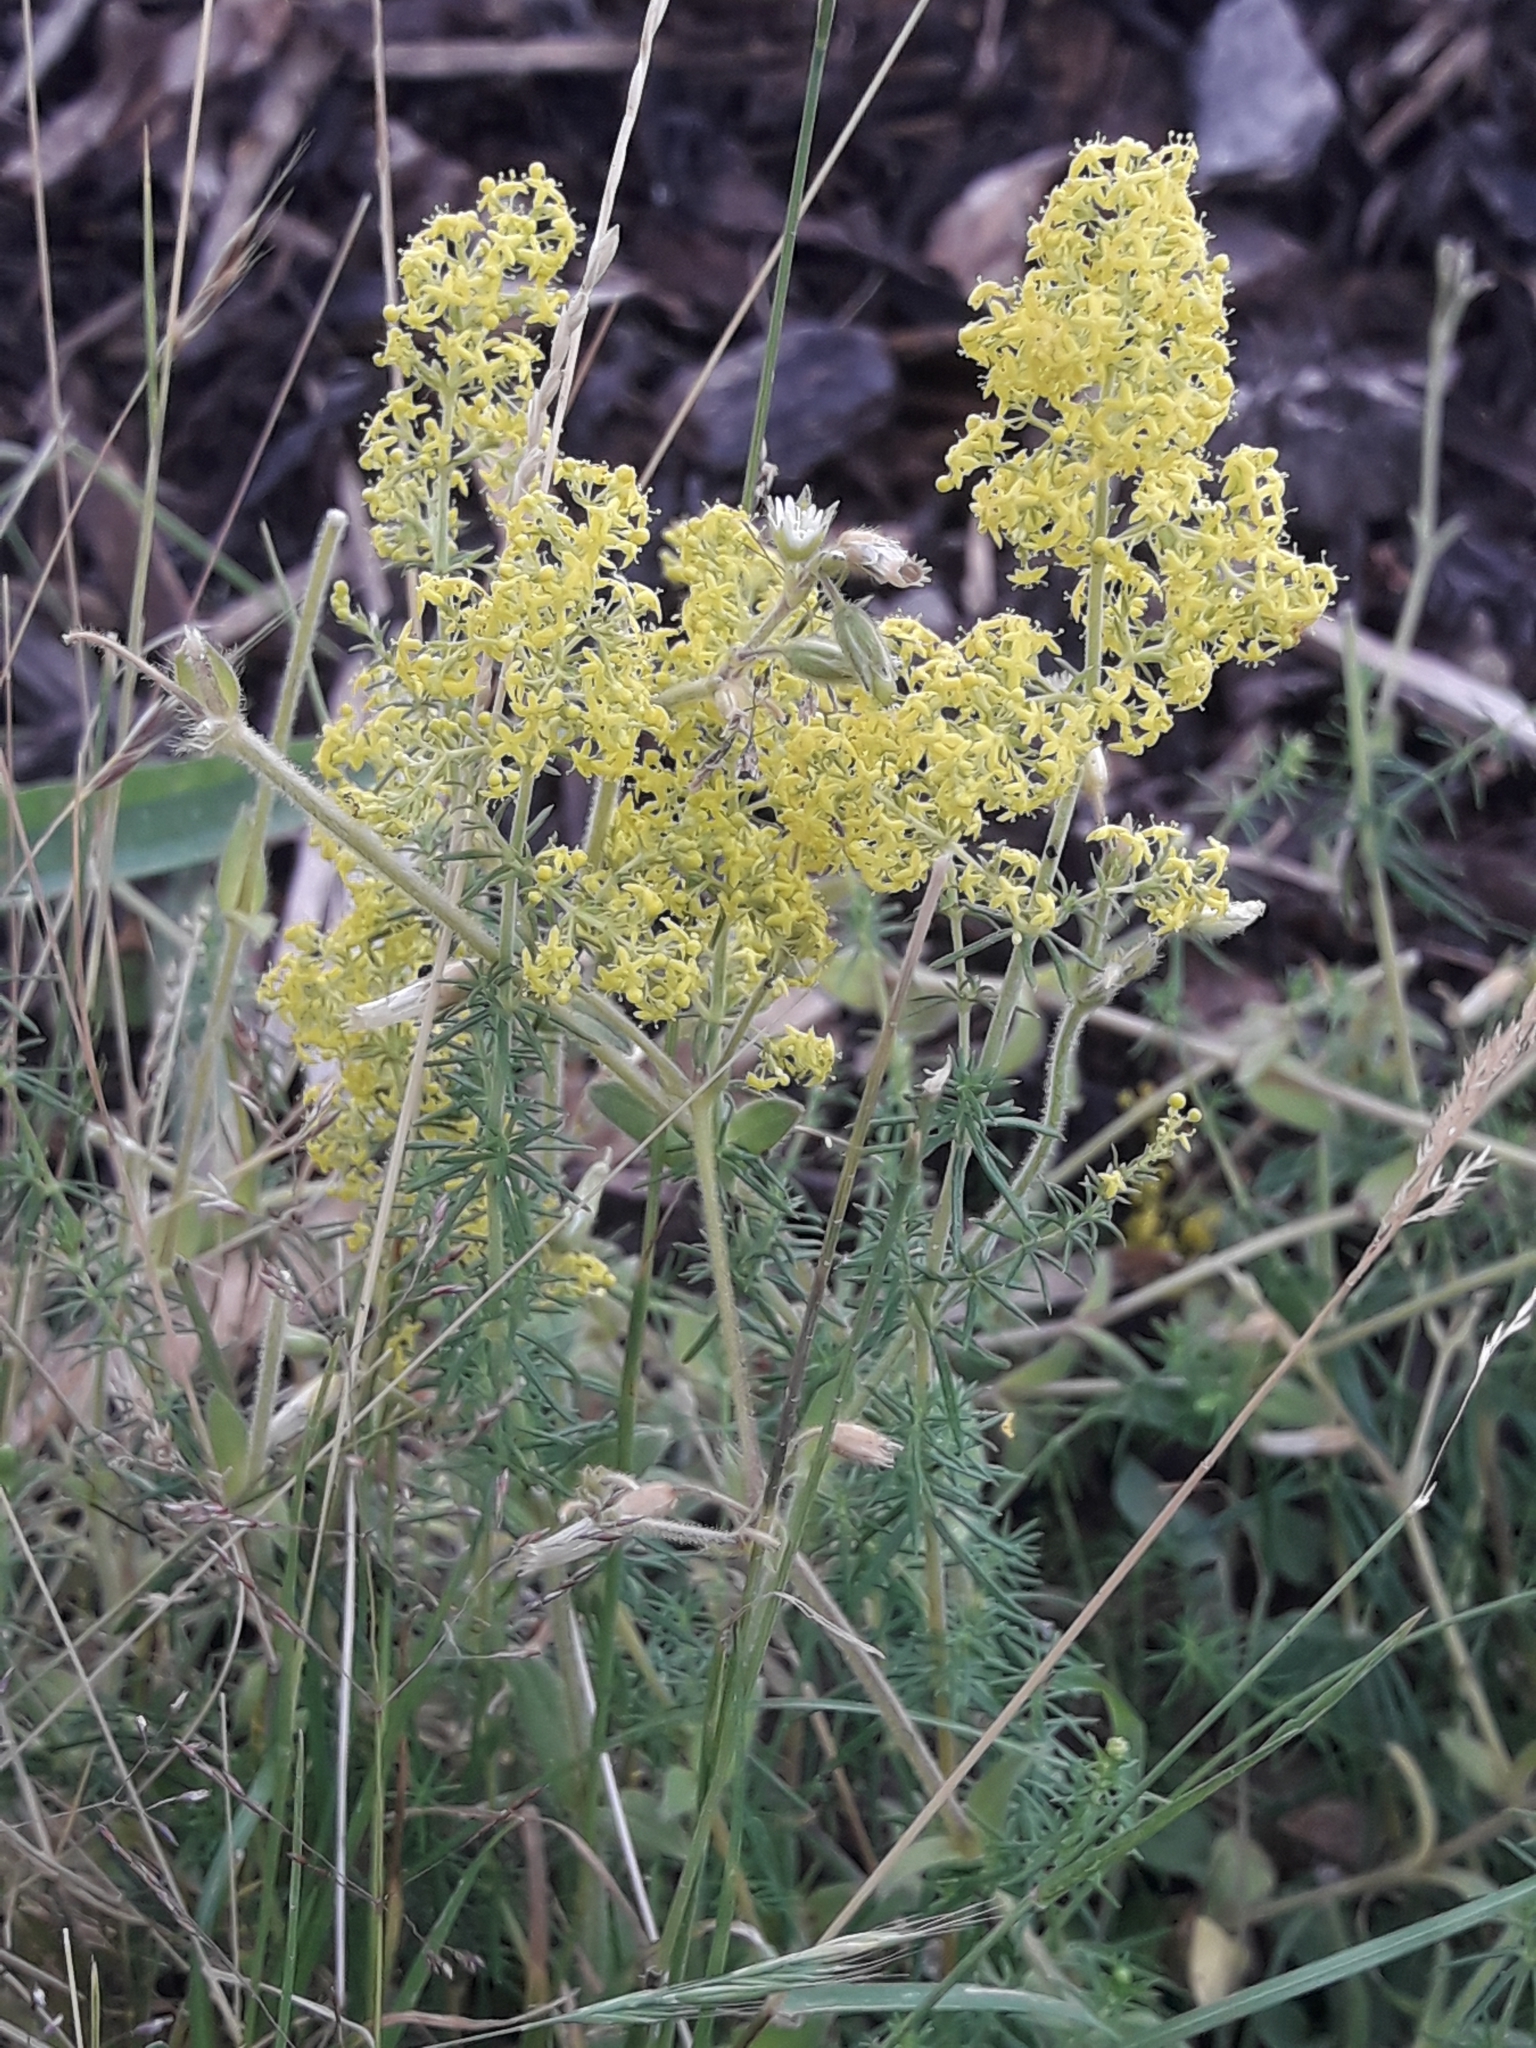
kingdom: Plantae
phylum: Tracheophyta
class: Magnoliopsida
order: Gentianales
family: Rubiaceae
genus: Galium
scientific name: Galium verum
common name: Lady's bedstraw
